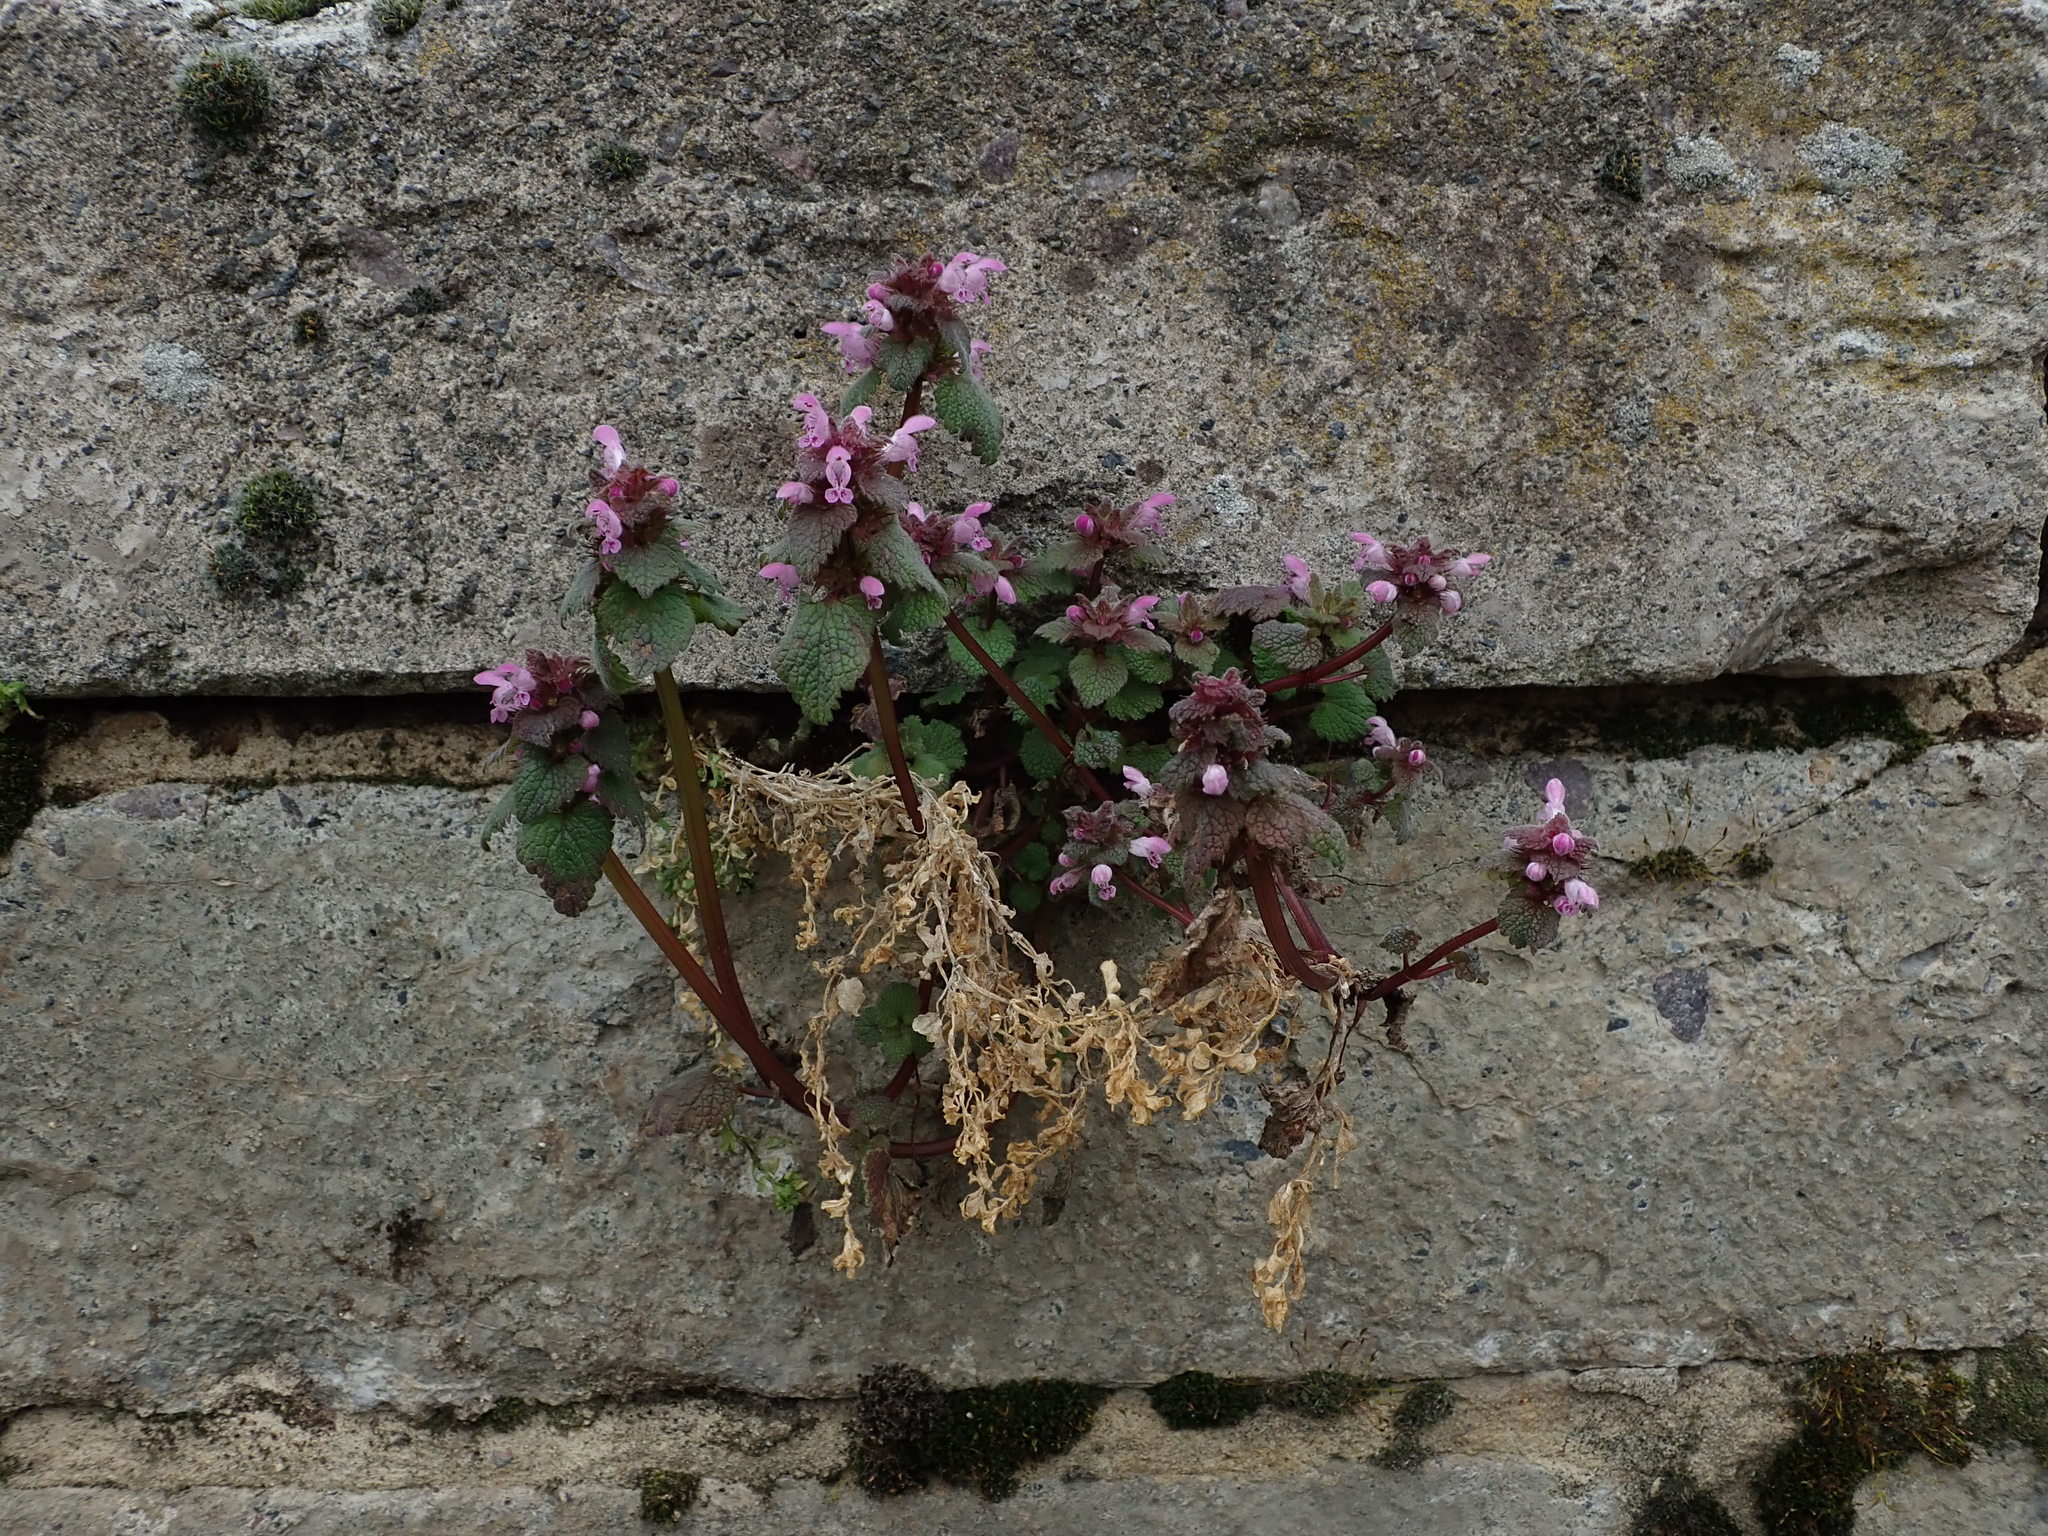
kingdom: Plantae
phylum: Tracheophyta
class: Magnoliopsida
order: Lamiales
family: Lamiaceae
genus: Lamium
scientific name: Lamium purpureum
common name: Red dead-nettle
